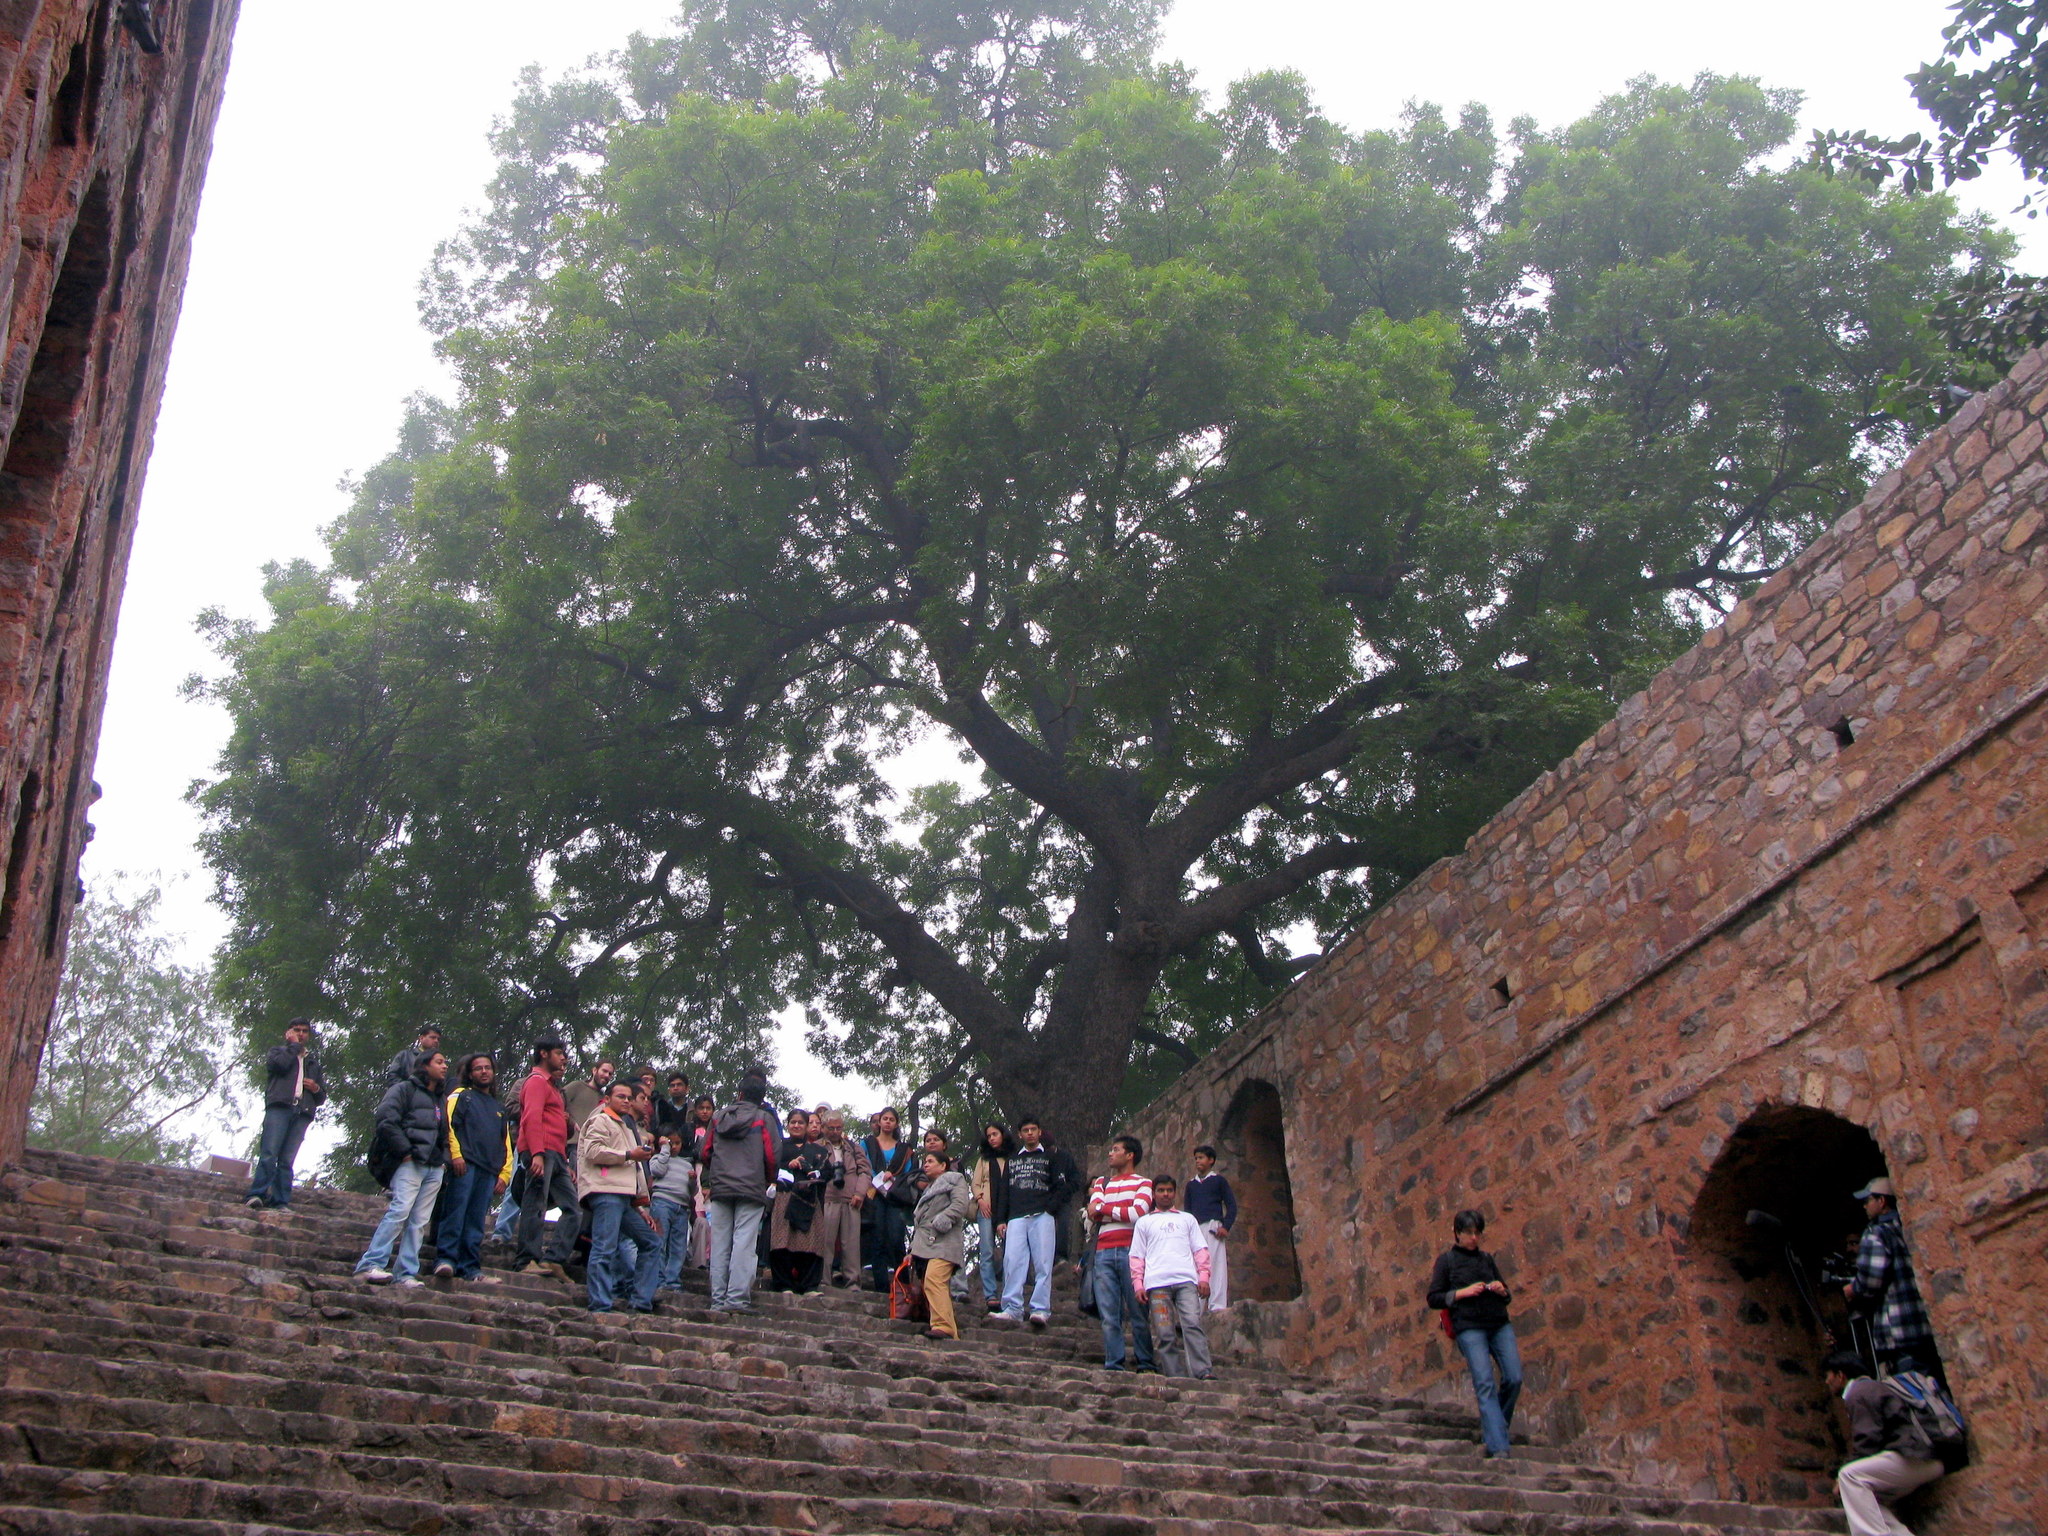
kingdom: Plantae
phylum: Tracheophyta
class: Magnoliopsida
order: Sapindales
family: Meliaceae
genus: Azadirachta
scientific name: Azadirachta indica
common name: Neem
